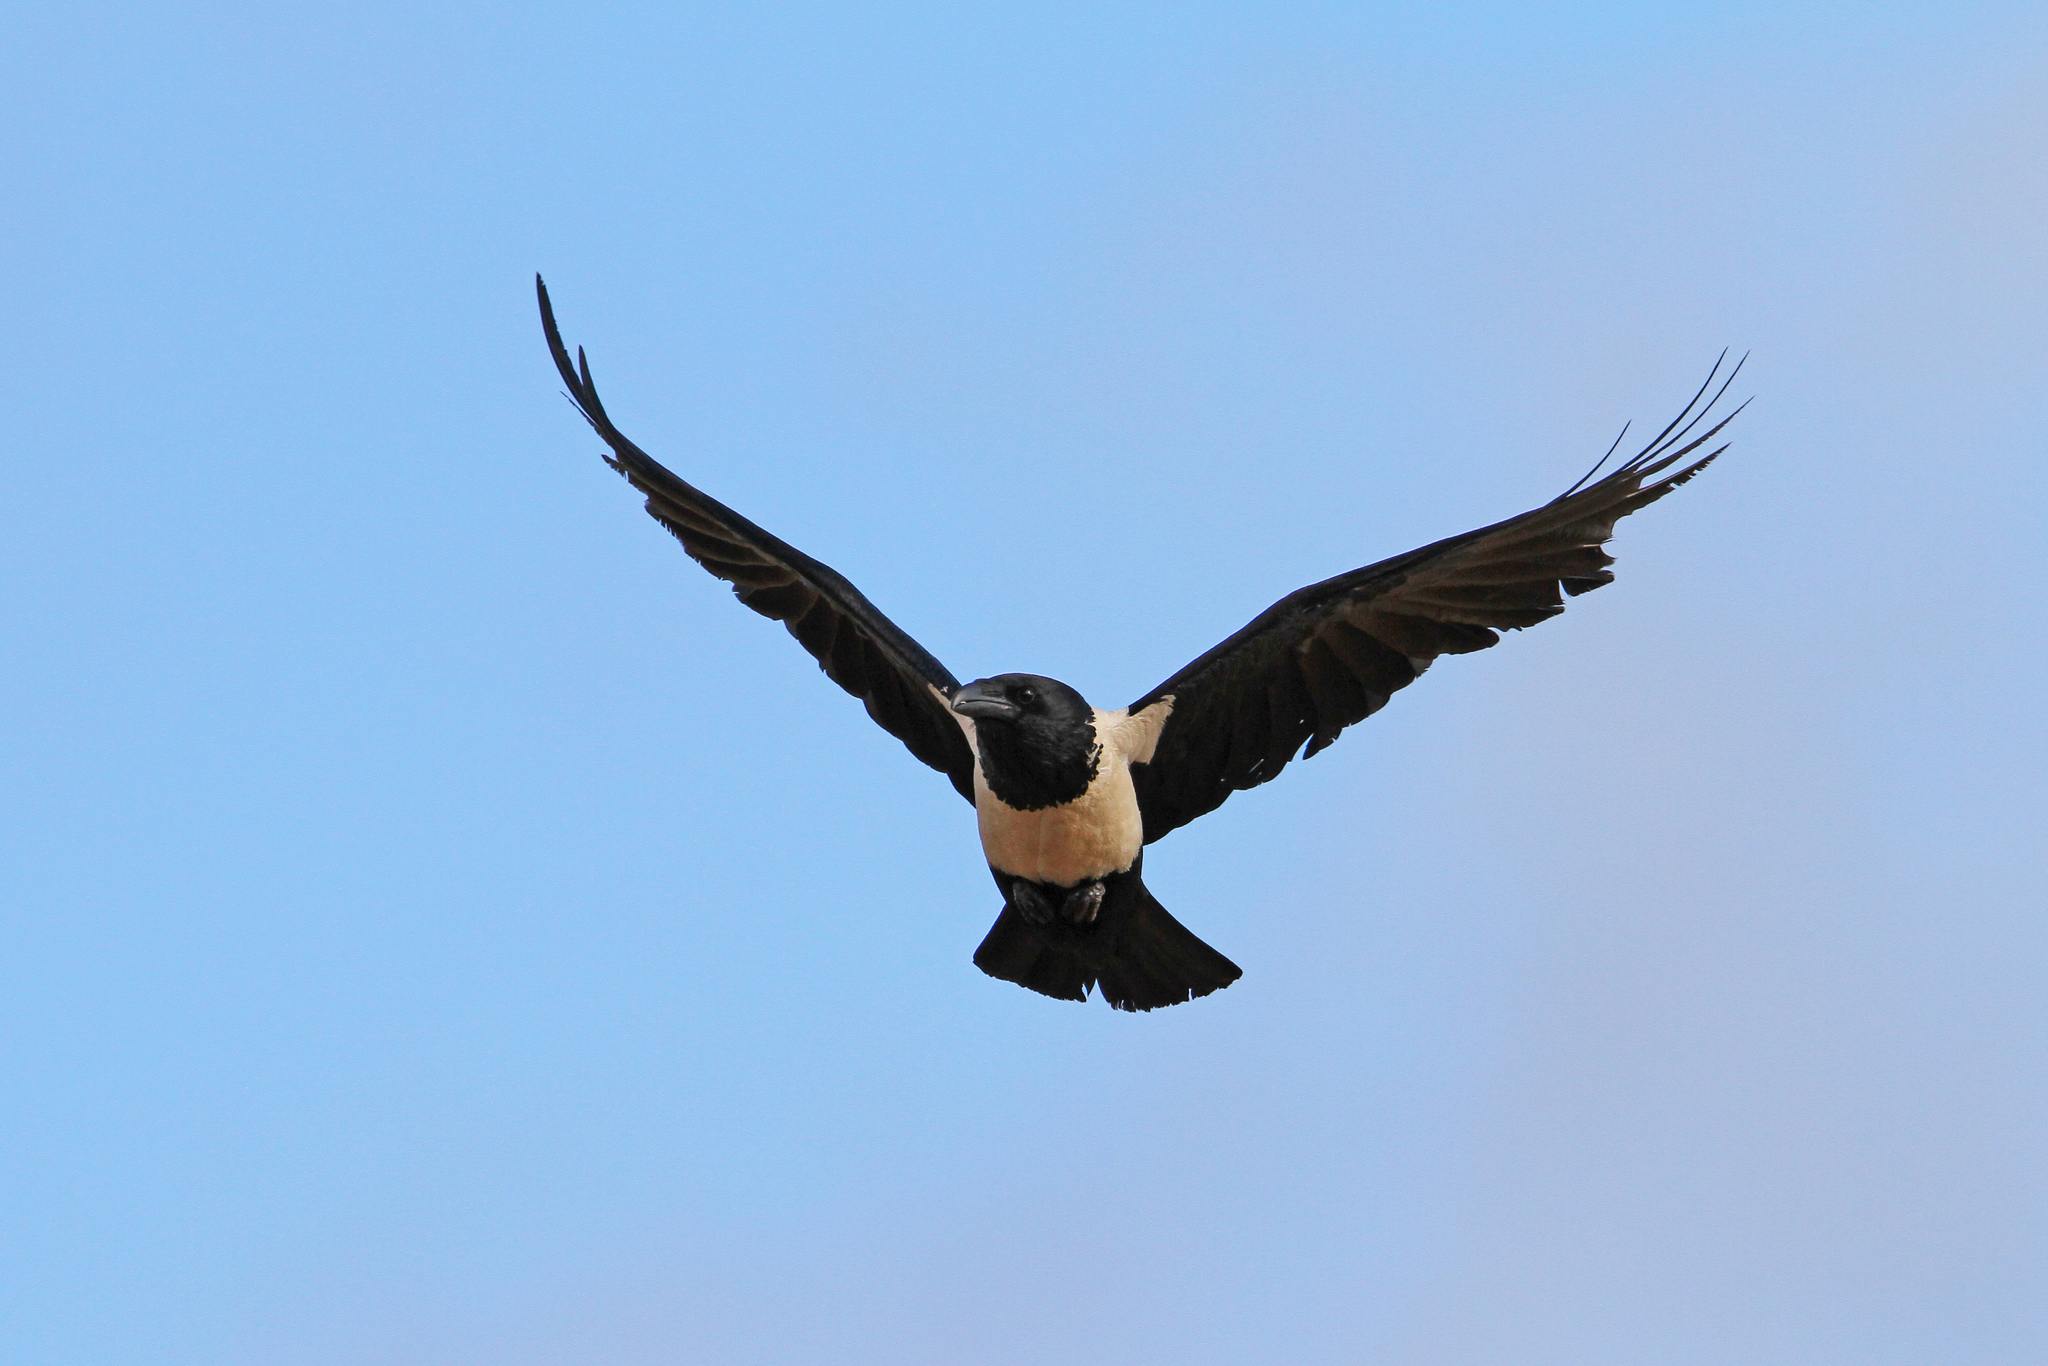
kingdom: Animalia
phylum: Chordata
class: Aves
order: Passeriformes
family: Corvidae
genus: Corvus
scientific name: Corvus albus
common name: Pied crow
